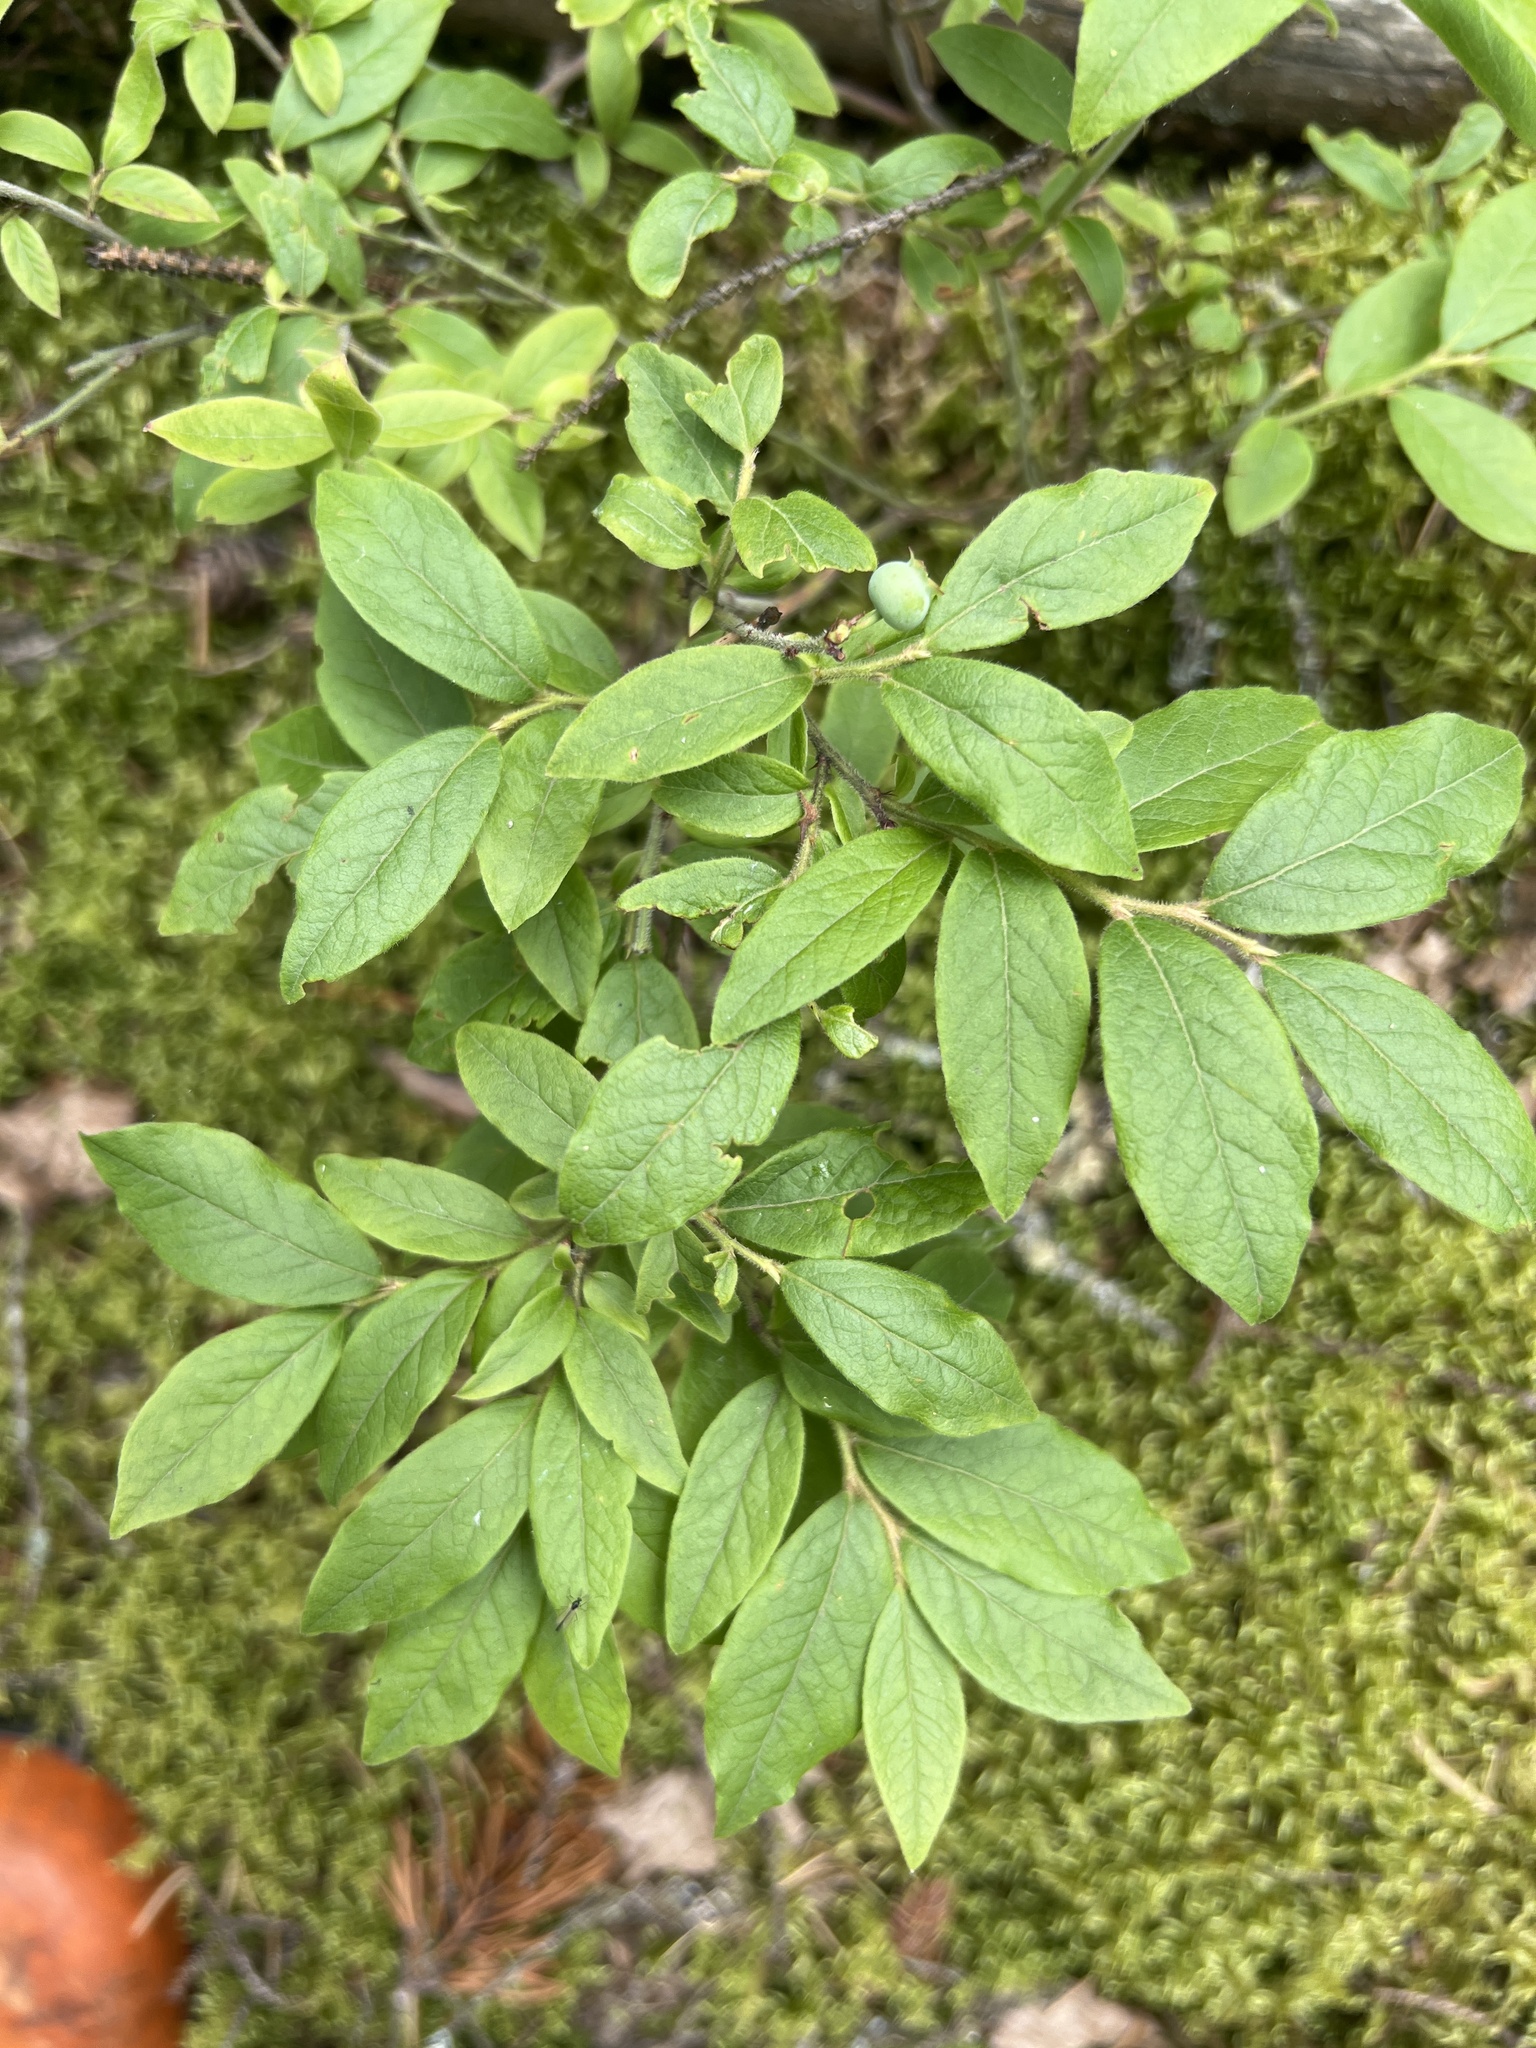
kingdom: Plantae
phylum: Tracheophyta
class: Magnoliopsida
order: Ericales
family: Ericaceae
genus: Vaccinium
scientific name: Vaccinium myrtilloides
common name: Canada blueberry
